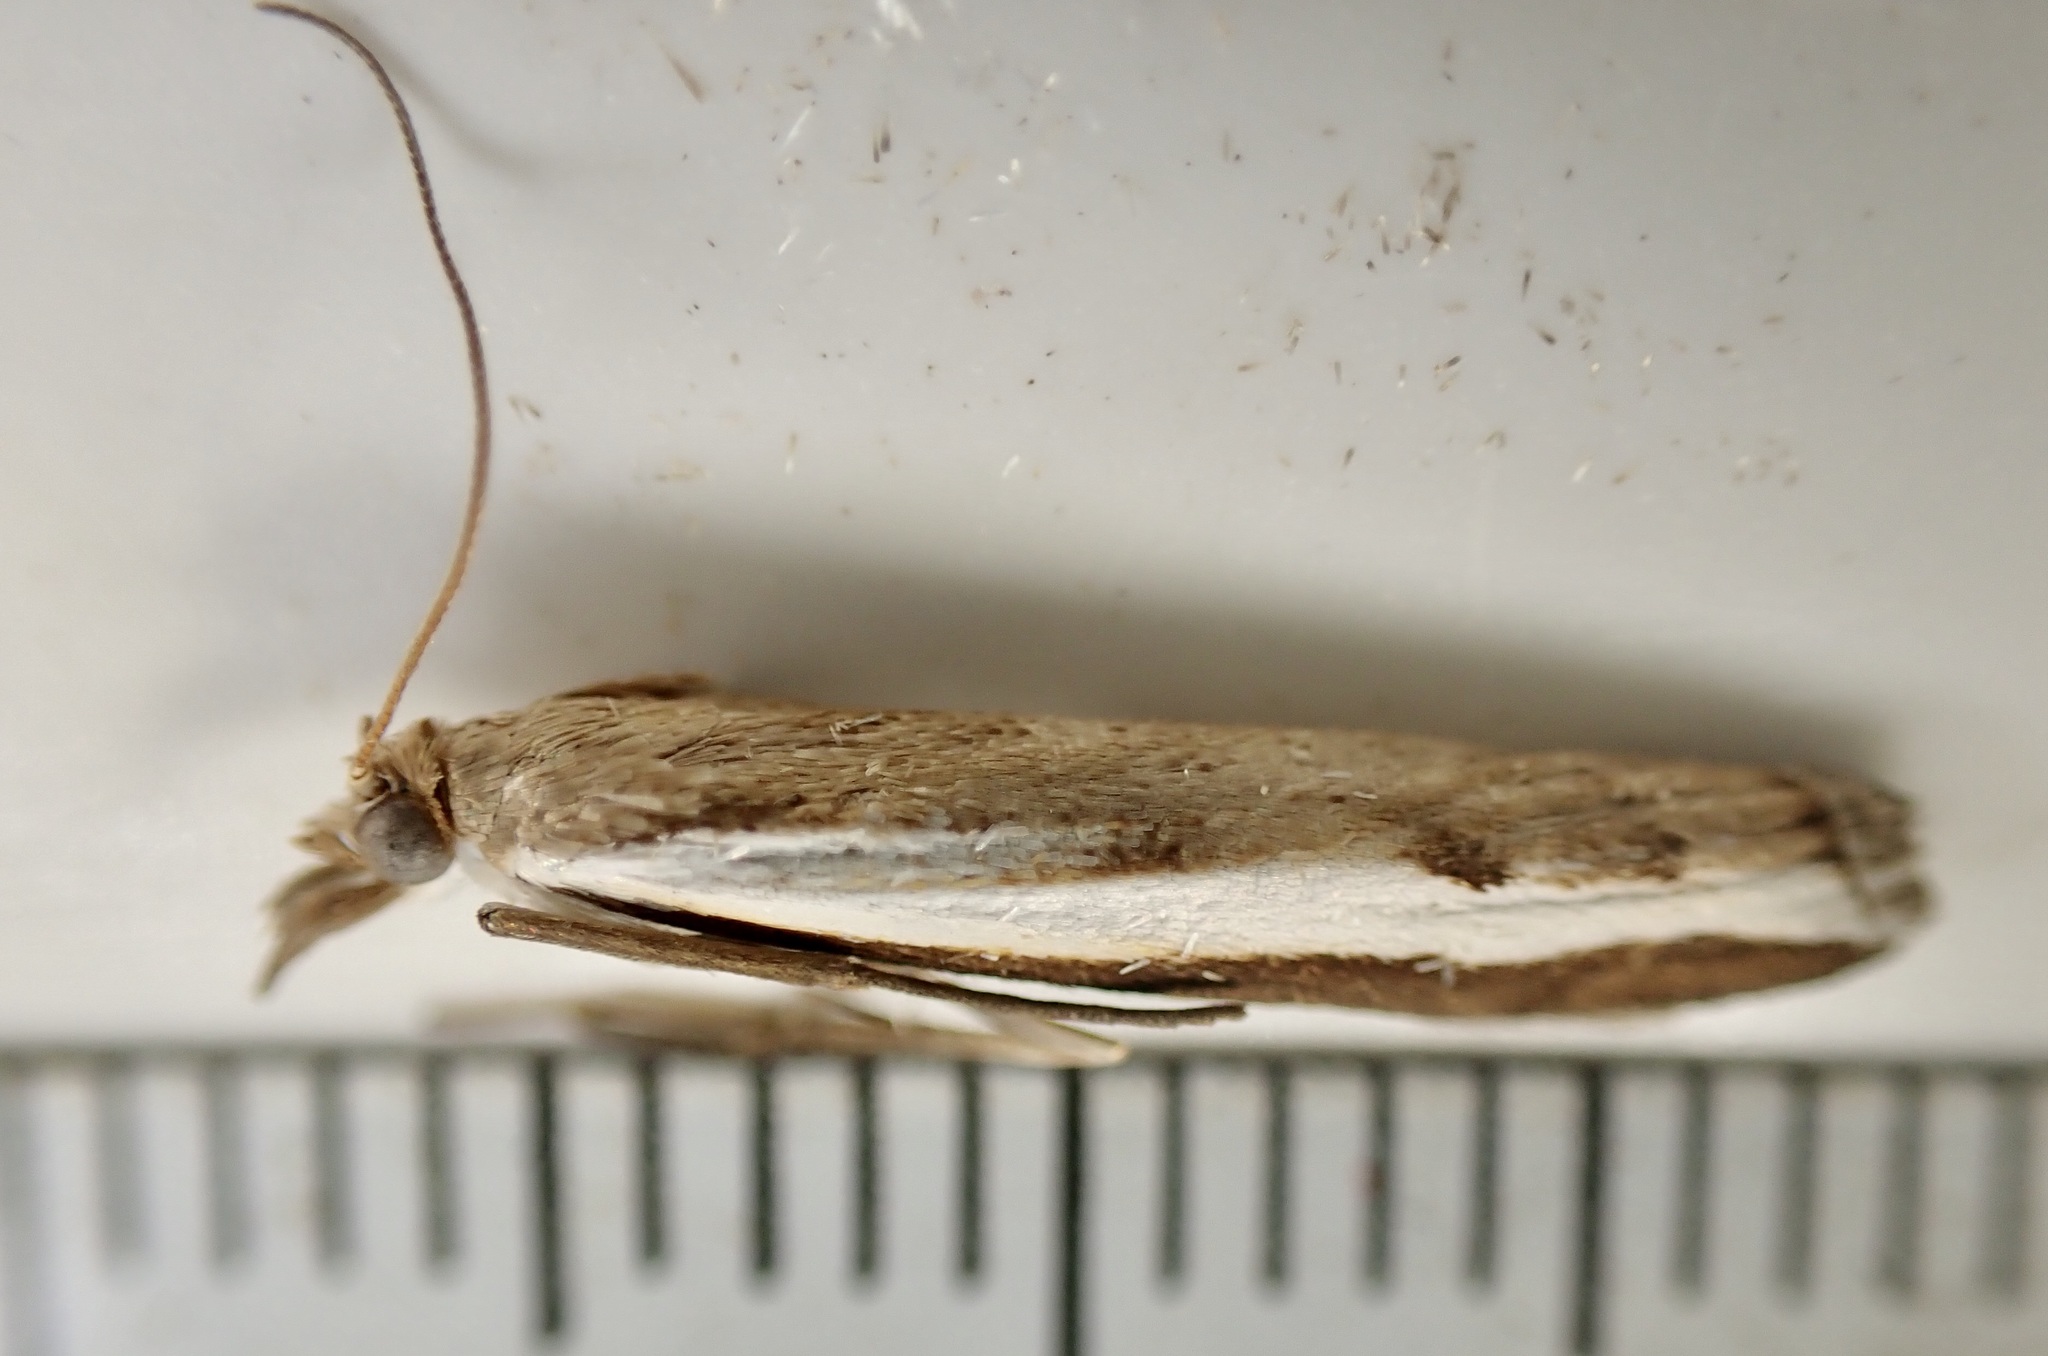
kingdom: Animalia
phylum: Arthropoda
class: Insecta
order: Lepidoptera
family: Crambidae
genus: Orocrambus
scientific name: Orocrambus flexuosellus
